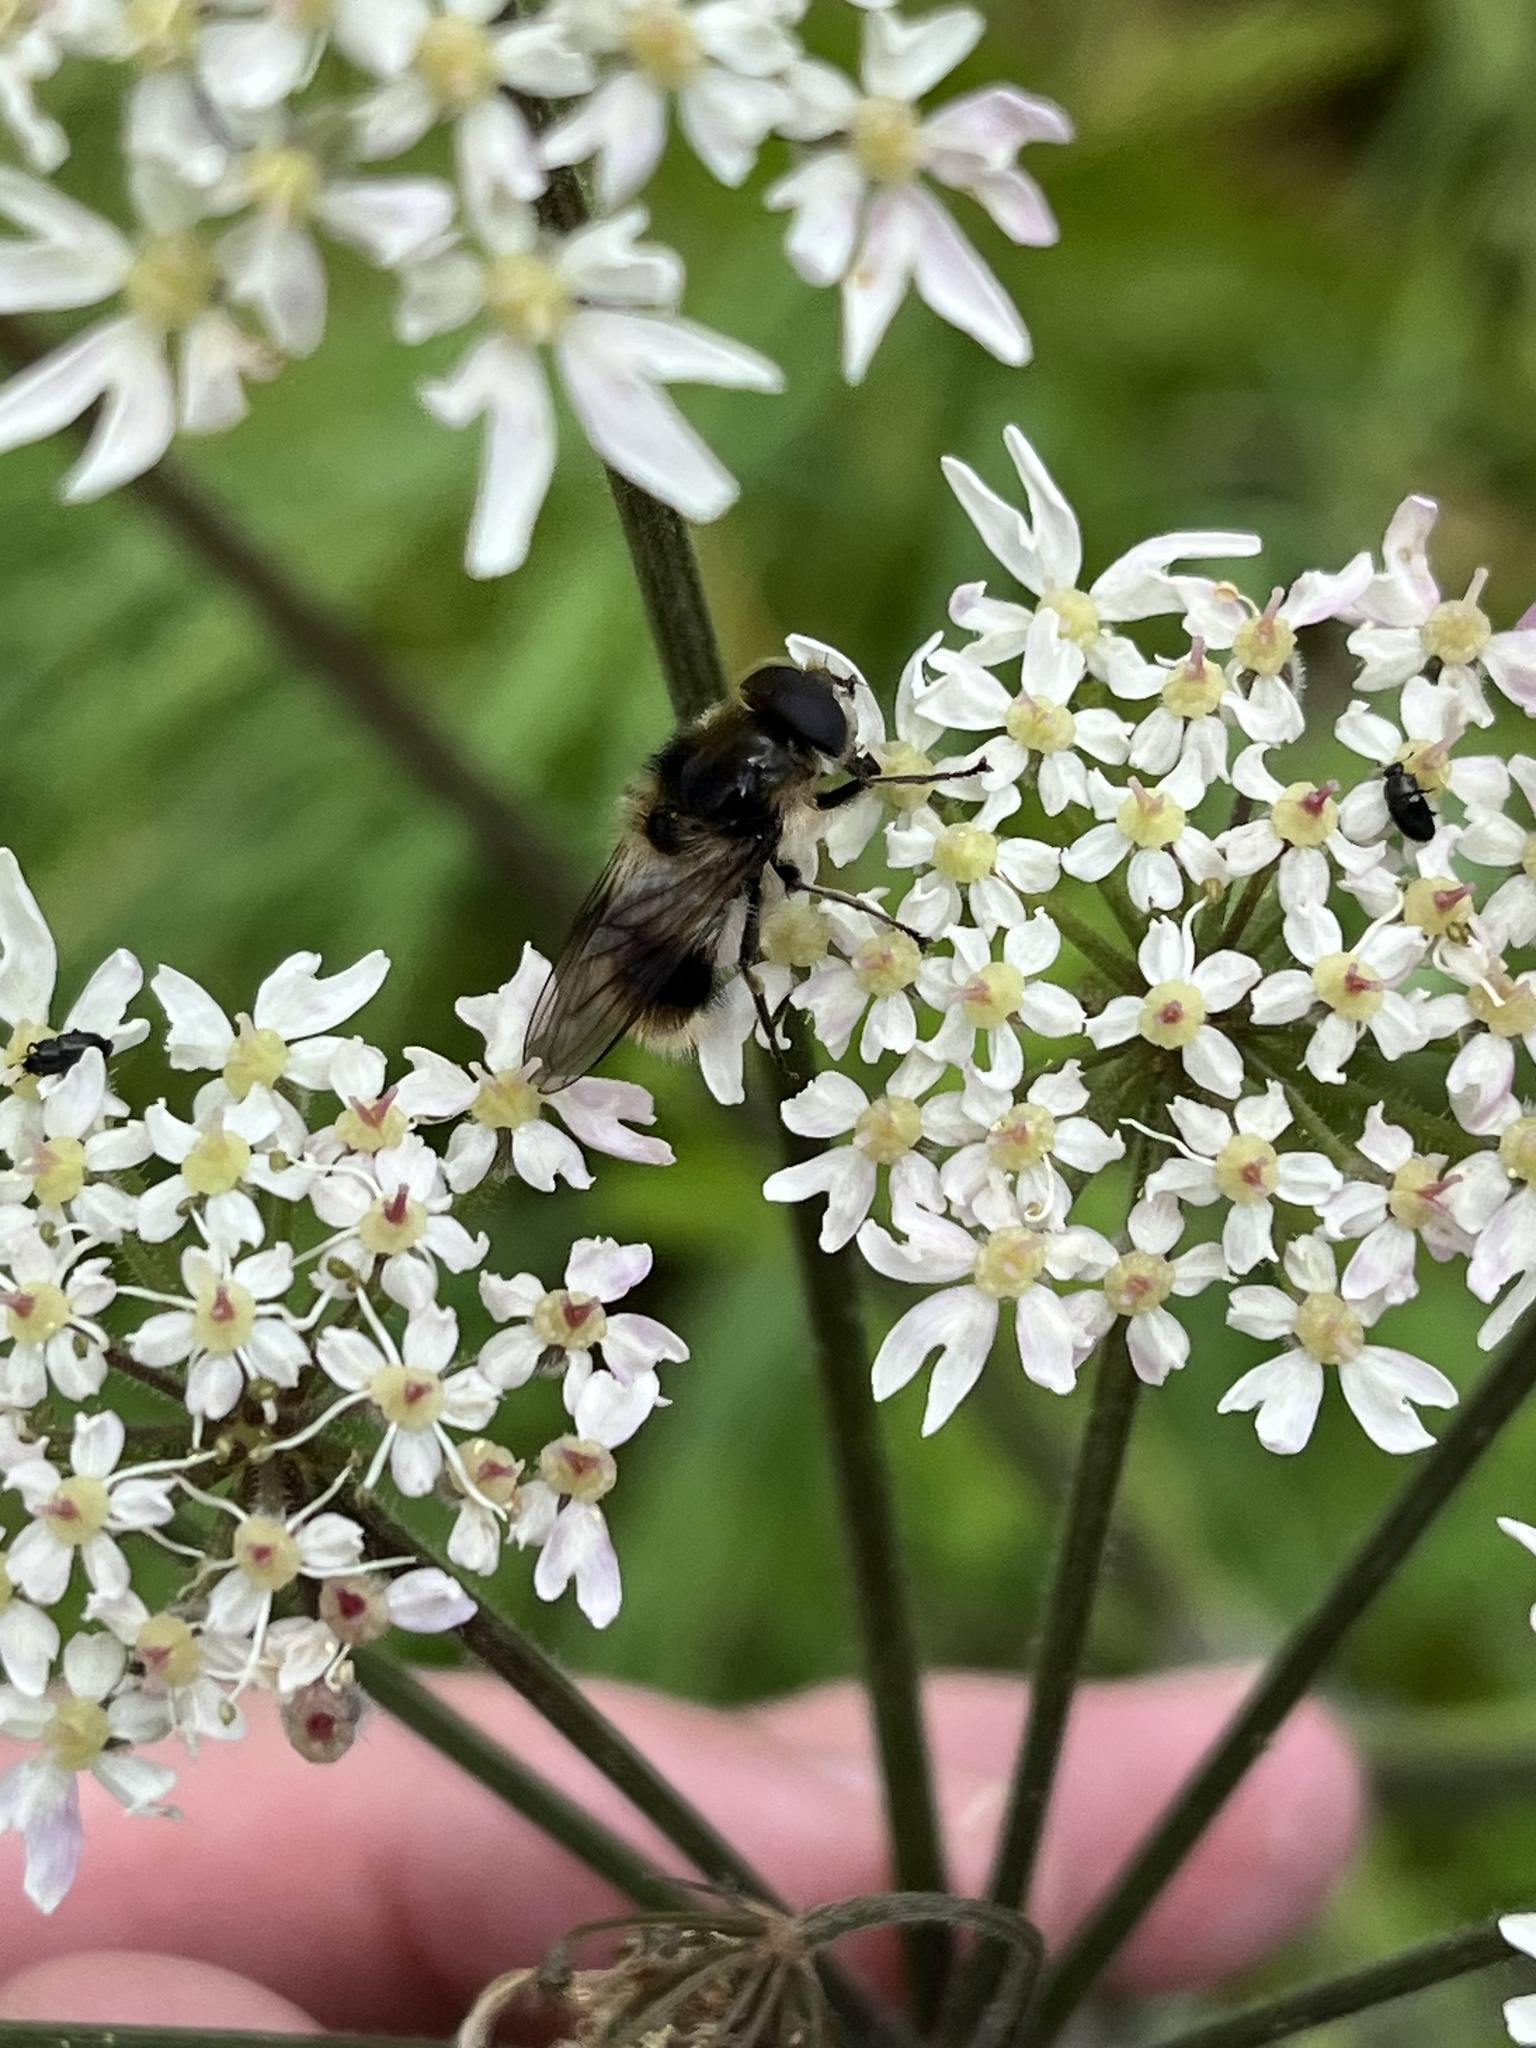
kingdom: Animalia
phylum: Arthropoda
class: Insecta
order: Diptera
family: Syrphidae
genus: Cheilosia
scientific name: Cheilosia illustrata
